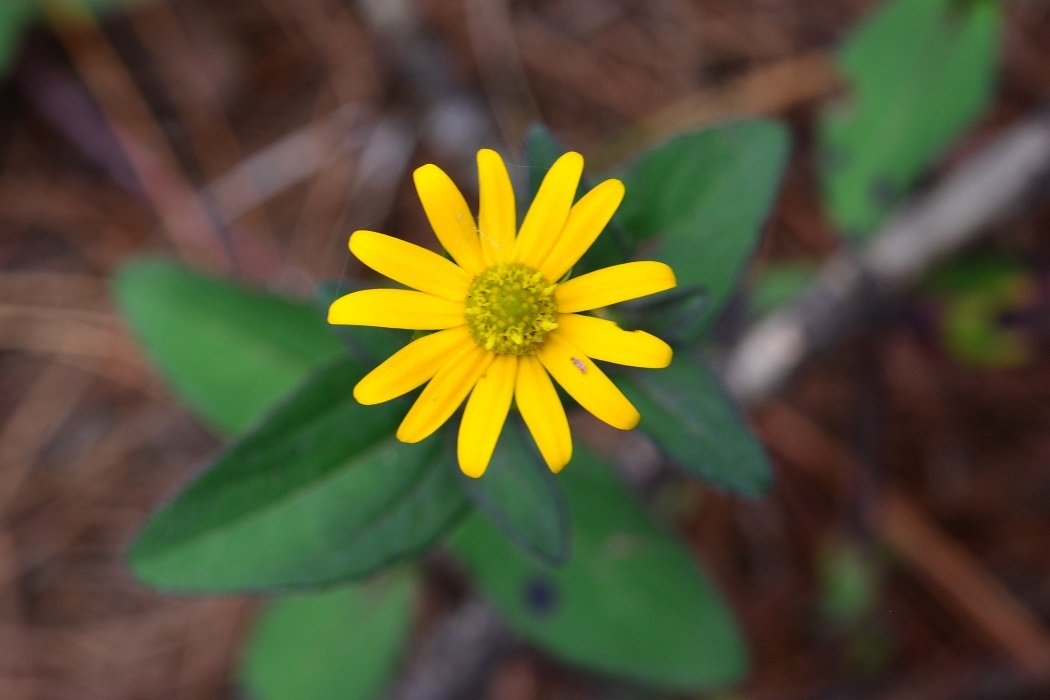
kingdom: Plantae
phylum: Tracheophyta
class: Magnoliopsida
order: Asterales
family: Asteraceae
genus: Acmella
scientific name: Acmella repens
